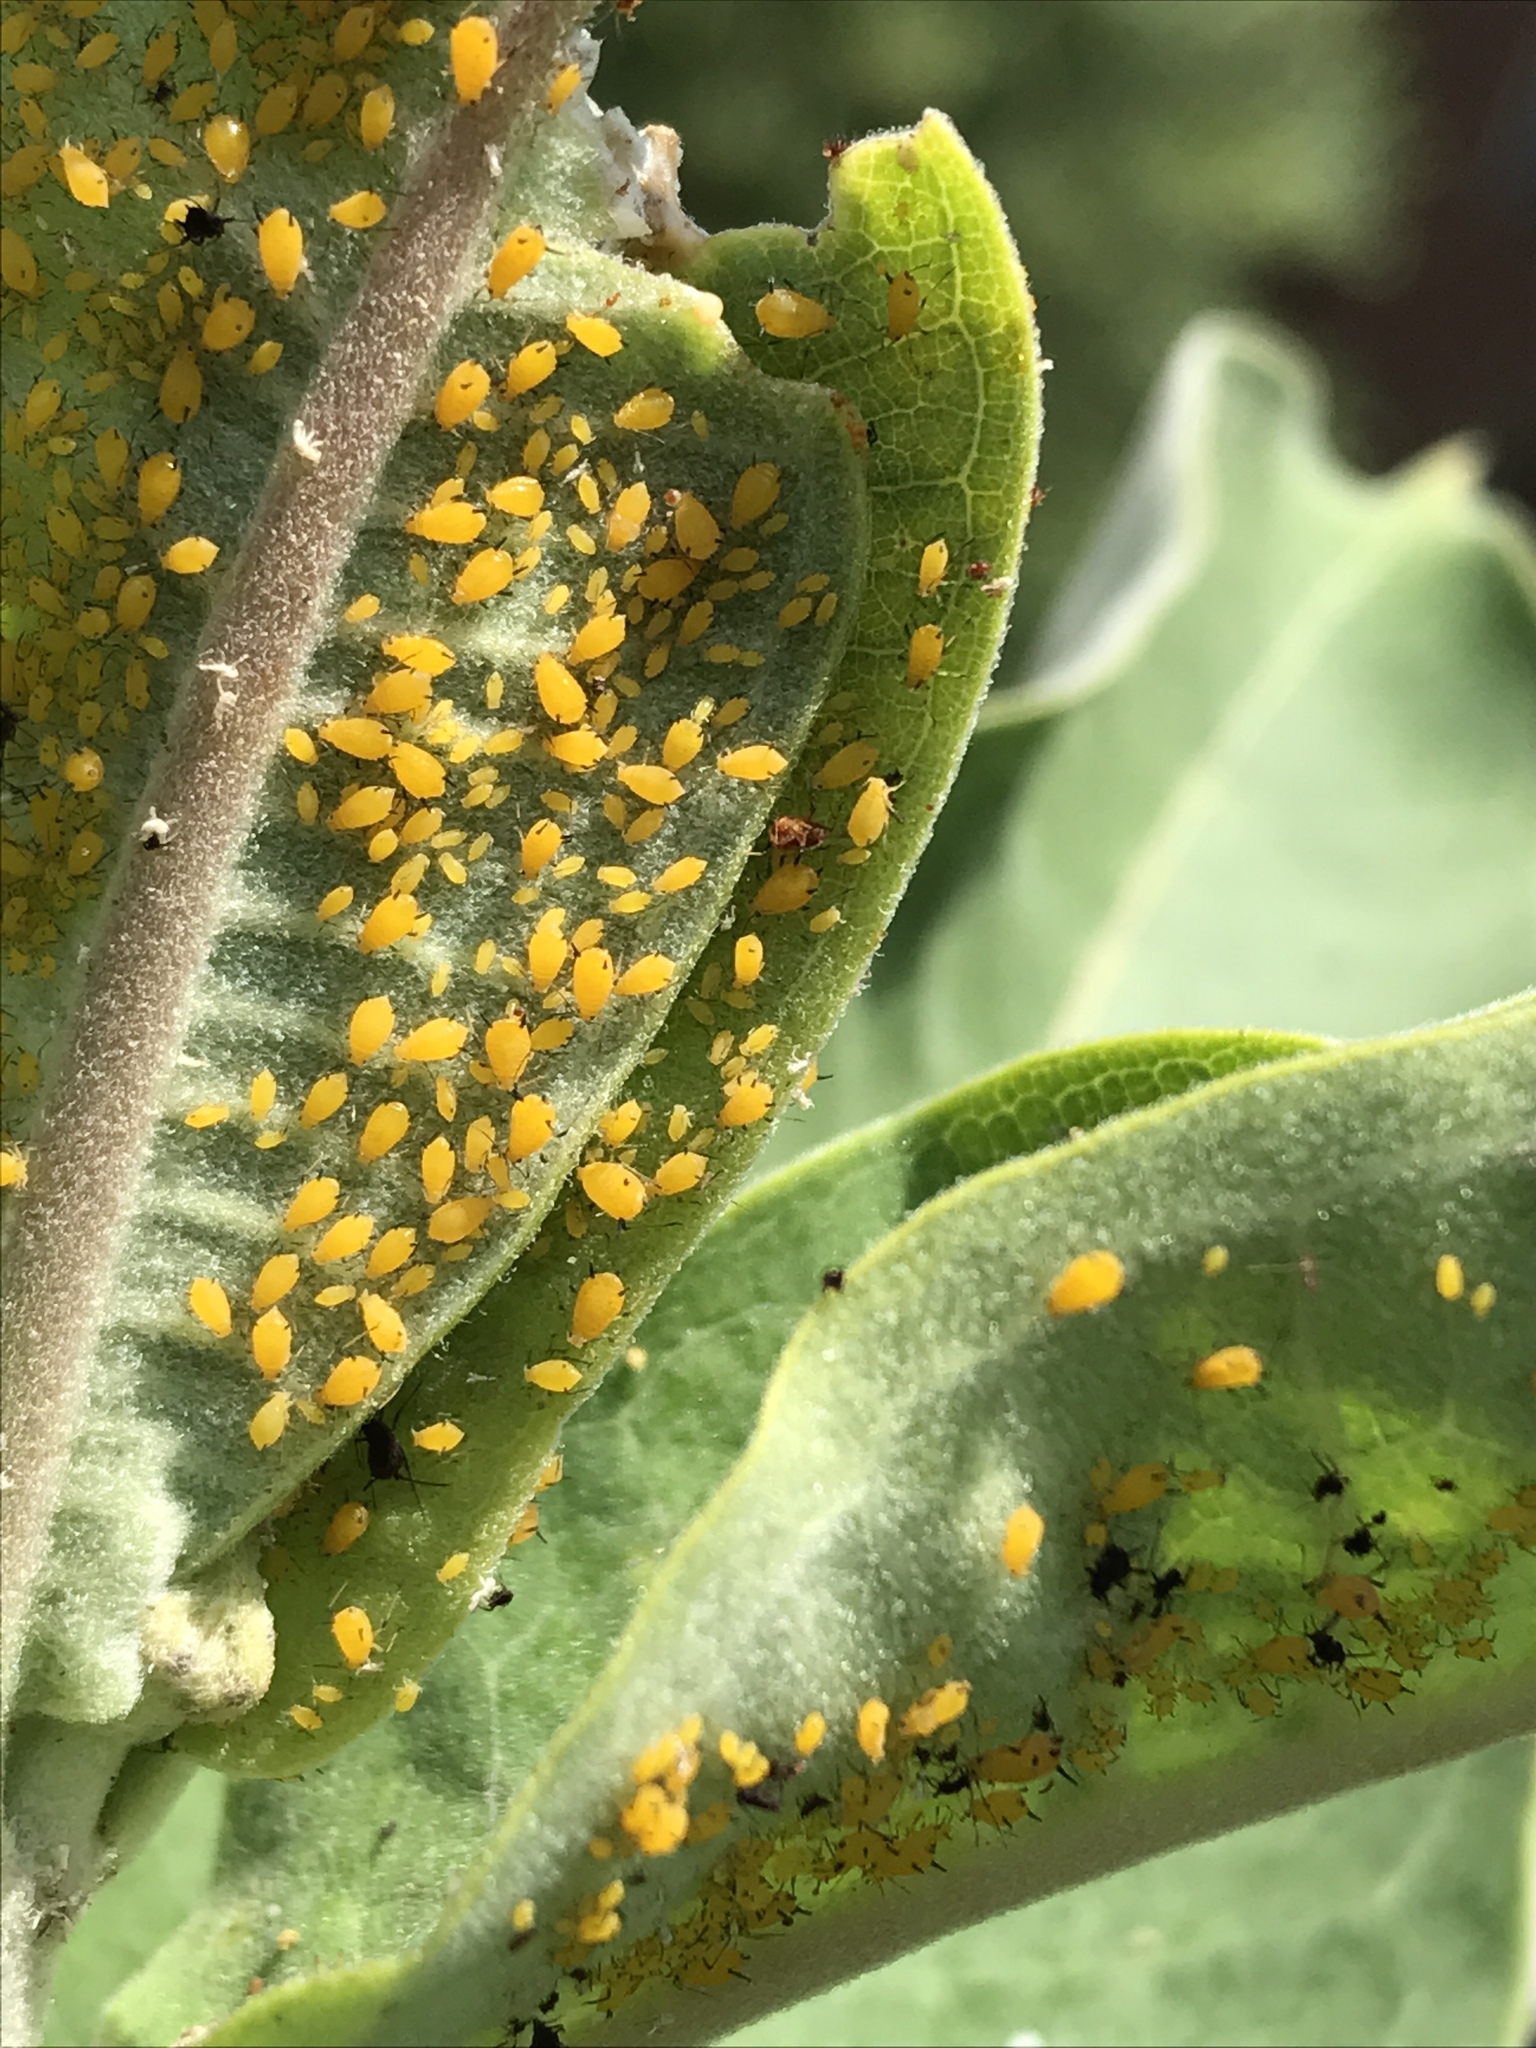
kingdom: Animalia
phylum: Arthropoda
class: Insecta
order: Hemiptera
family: Aphididae
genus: Aphis
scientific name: Aphis nerii
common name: Oleander aphid
